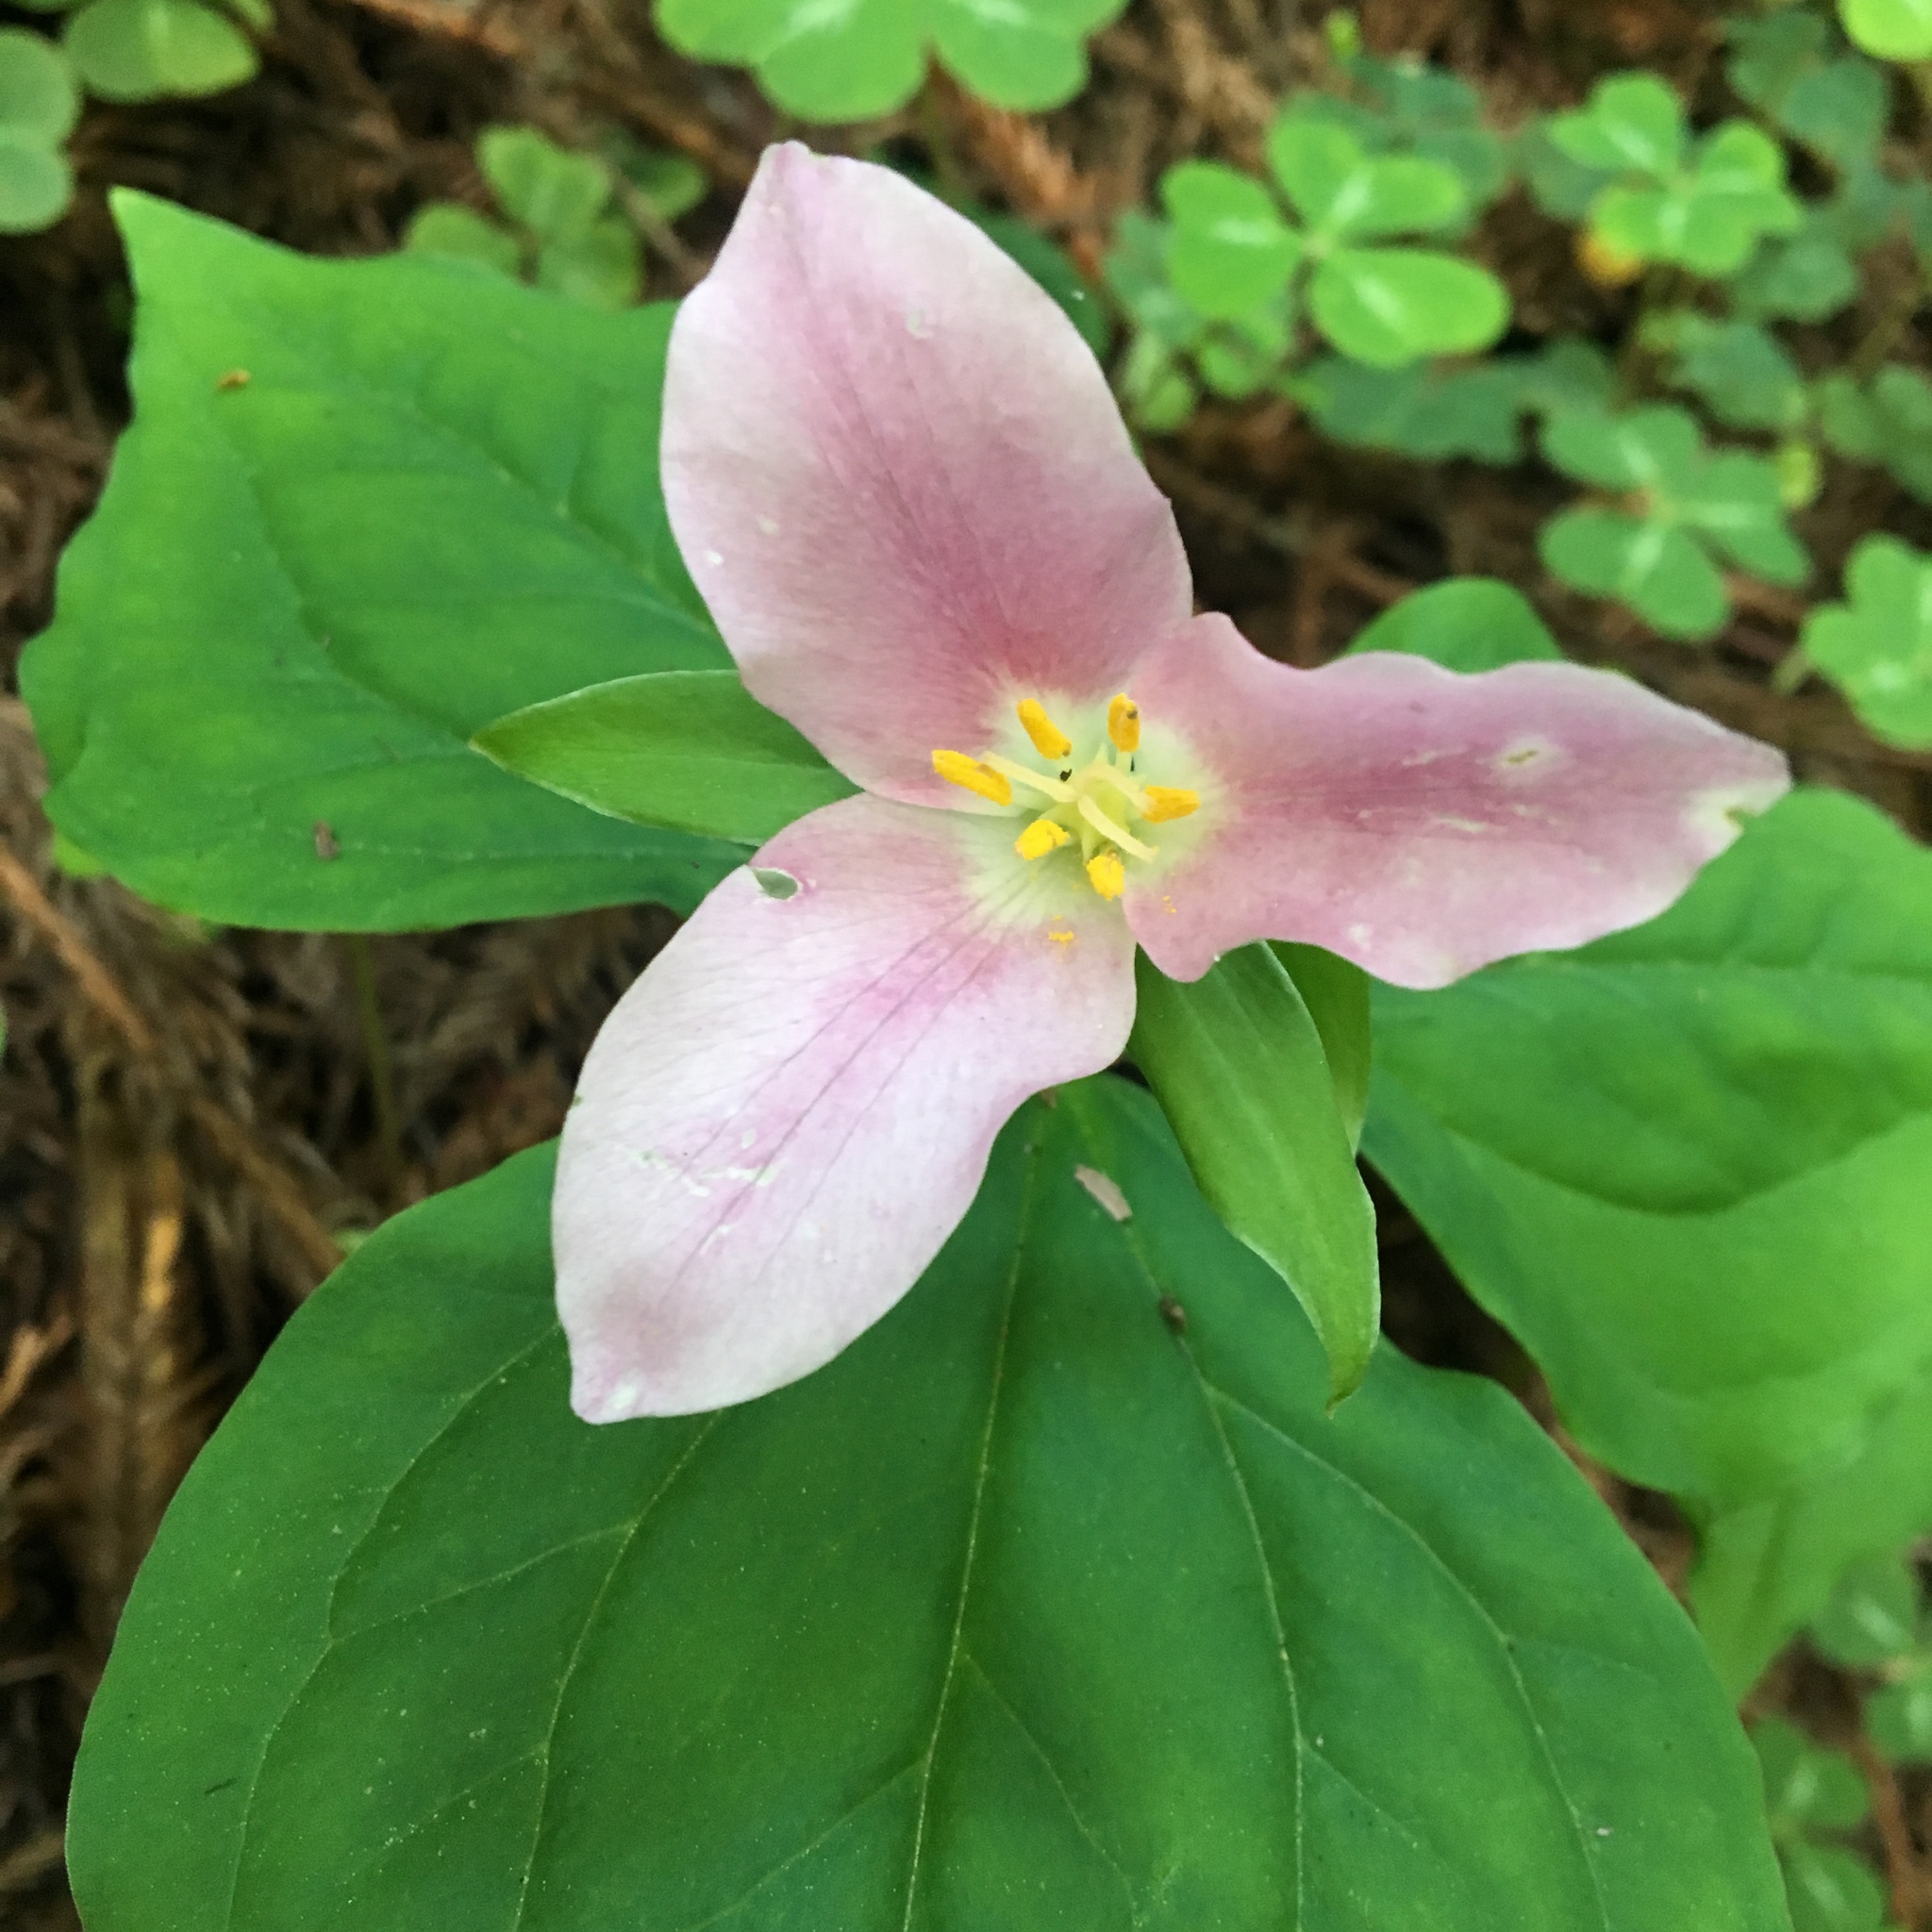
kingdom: Plantae
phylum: Tracheophyta
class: Liliopsida
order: Liliales
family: Melanthiaceae
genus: Trillium
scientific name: Trillium ovatum
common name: Pacific trillium
